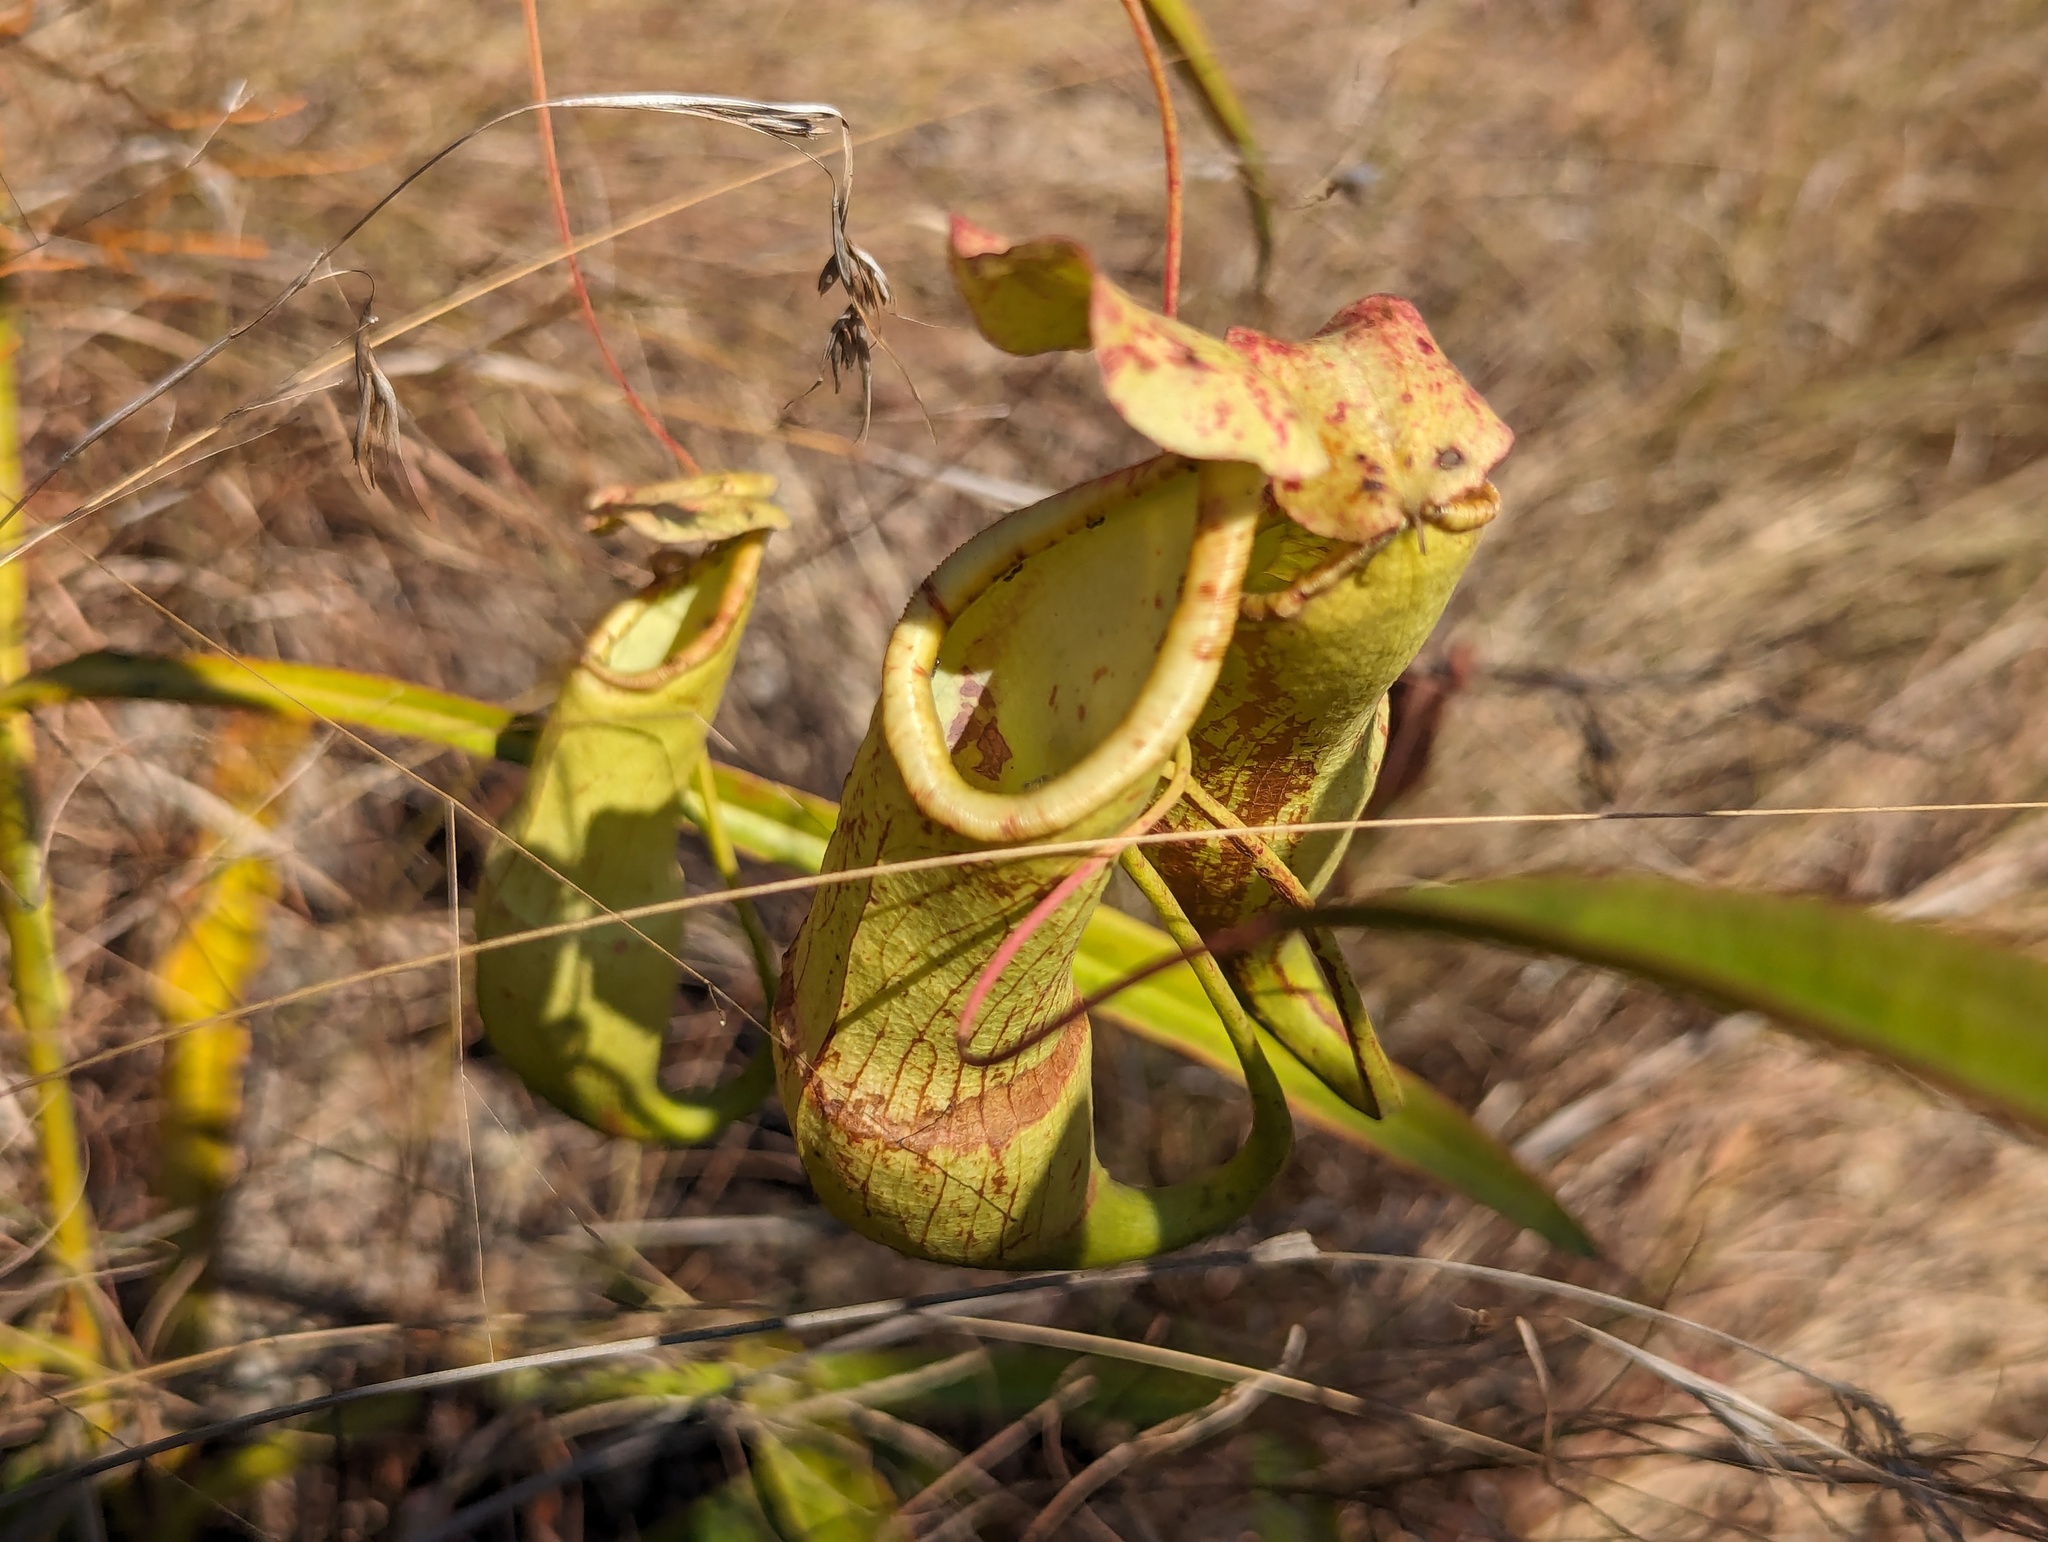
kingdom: Plantae
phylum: Tracheophyta
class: Magnoliopsida
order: Caryophyllales
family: Nepenthaceae
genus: Nepenthes
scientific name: Nepenthes abalata
